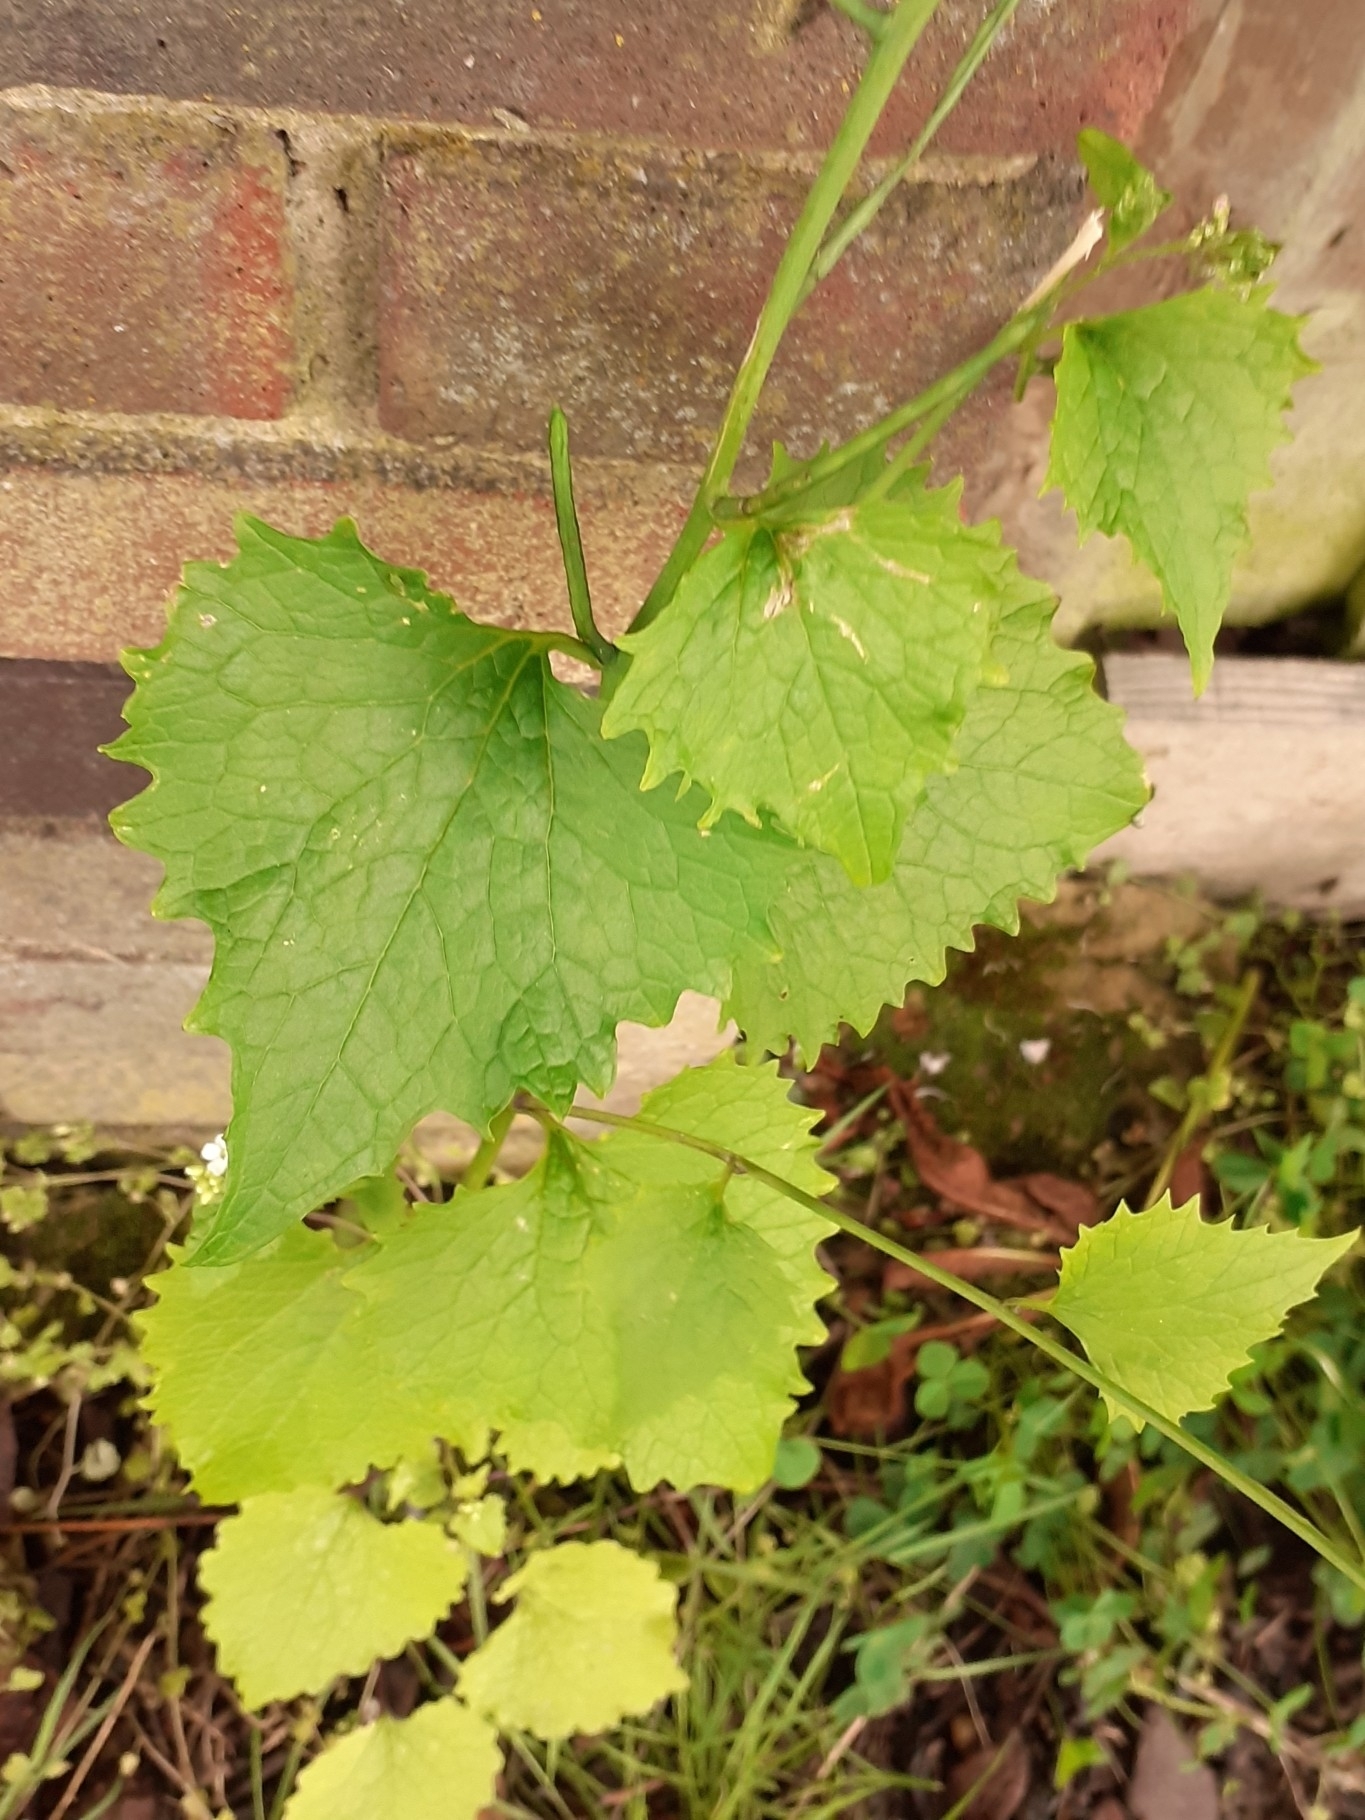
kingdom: Plantae
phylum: Tracheophyta
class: Magnoliopsida
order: Brassicales
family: Brassicaceae
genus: Alliaria
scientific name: Alliaria petiolata
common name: Garlic mustard
